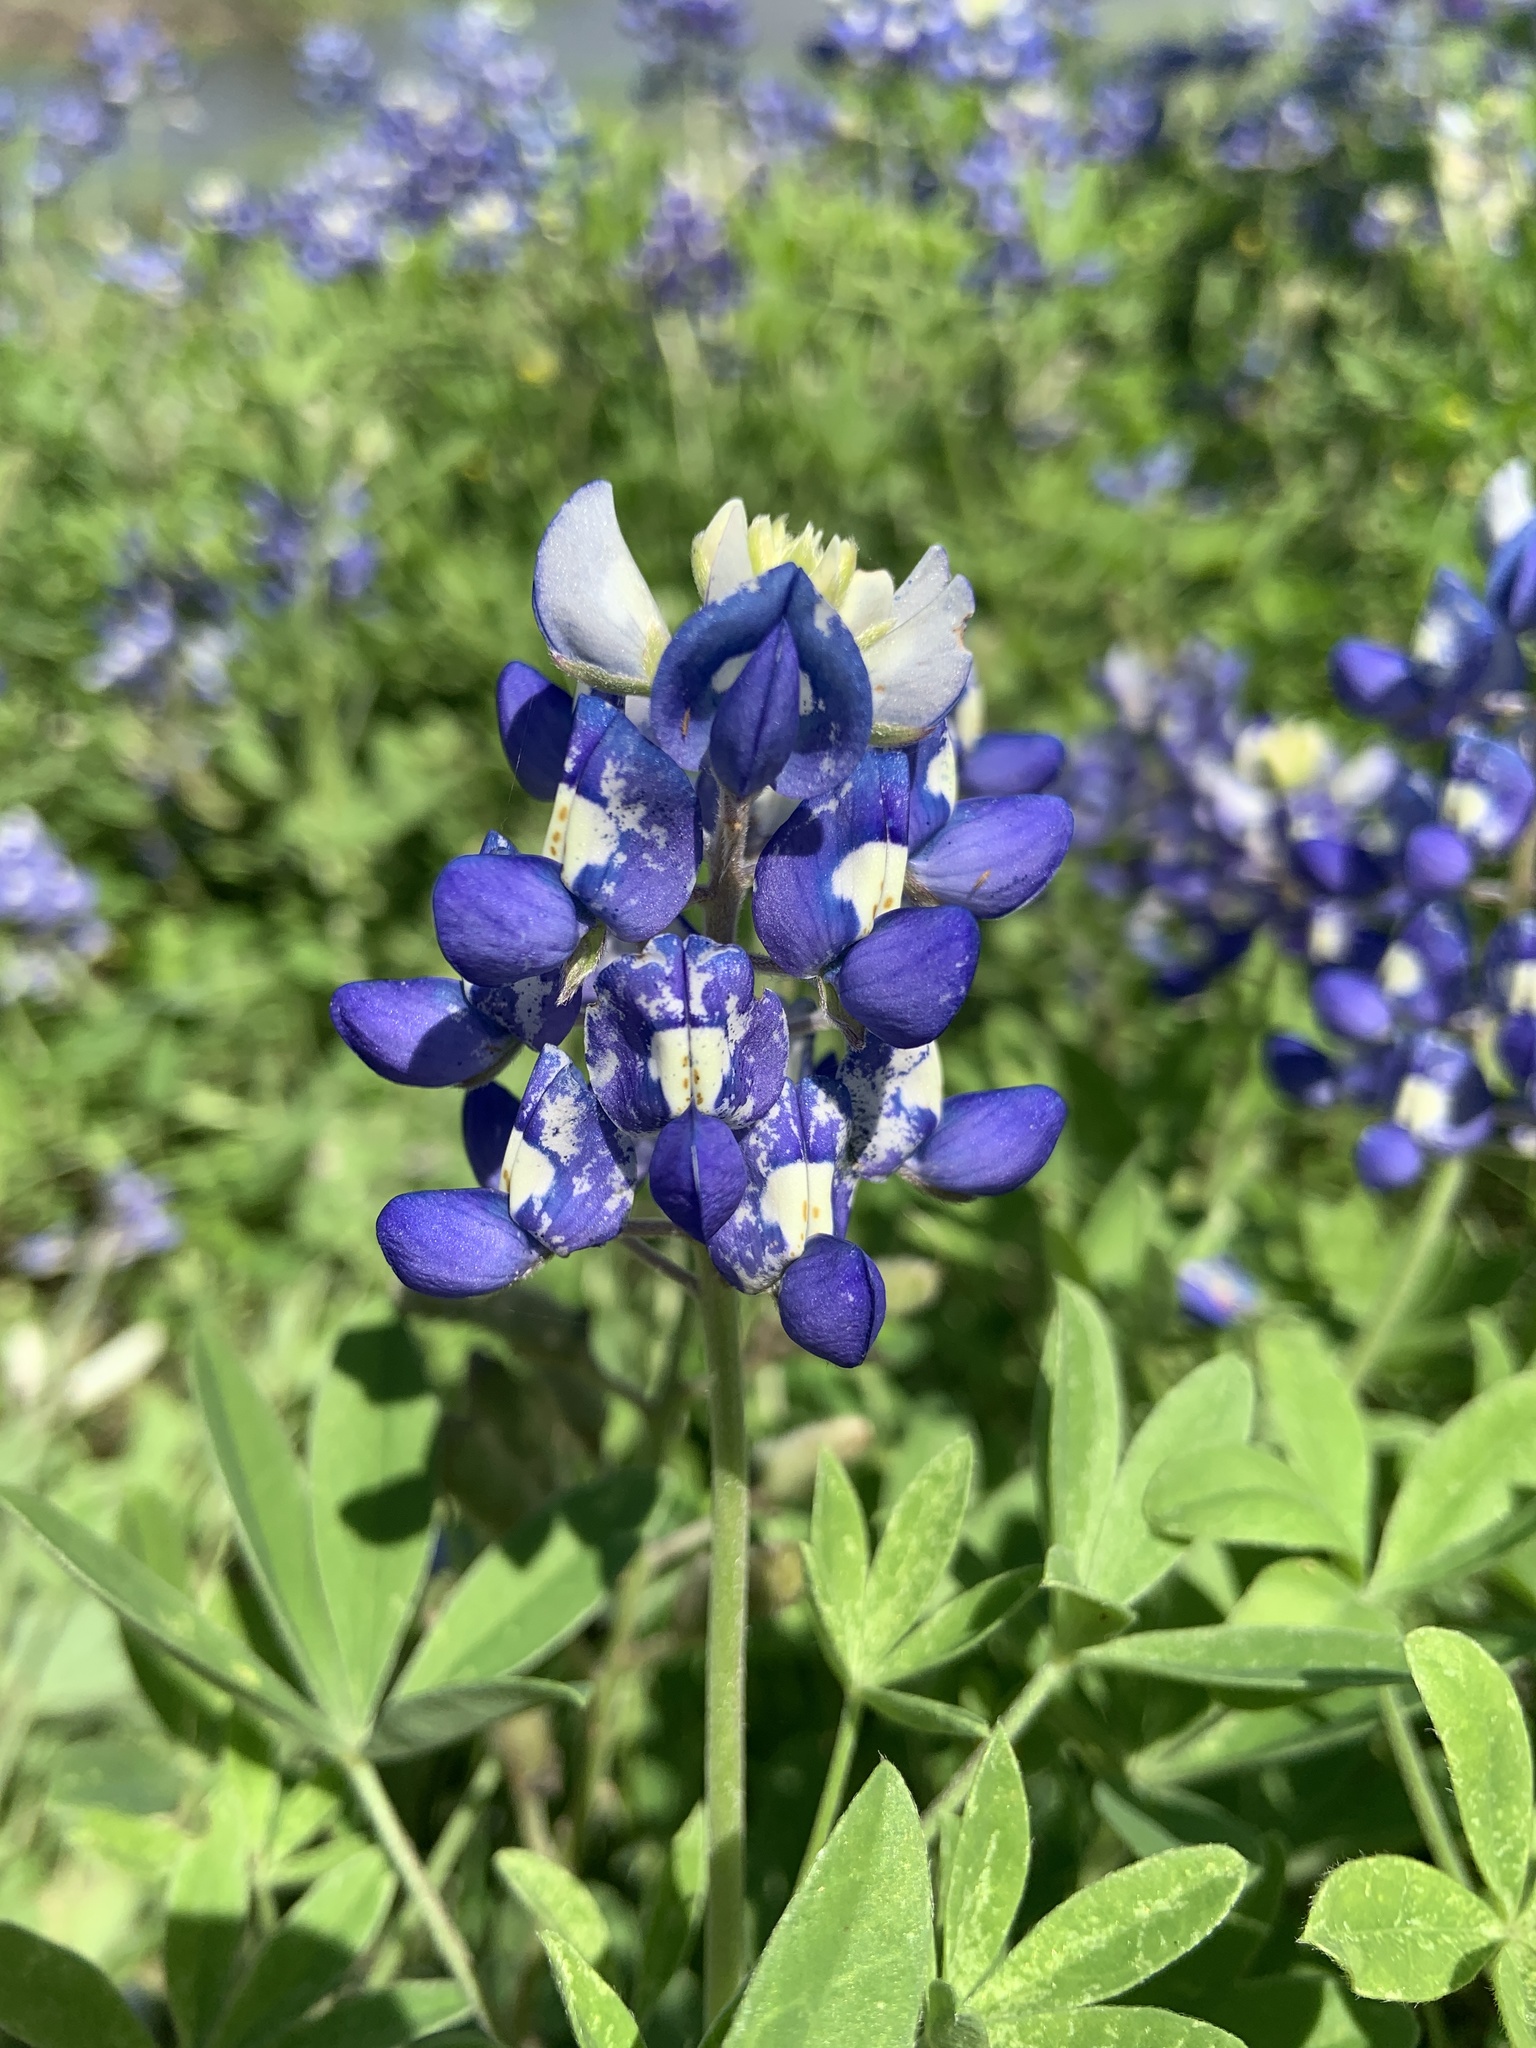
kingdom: Plantae
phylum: Tracheophyta
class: Magnoliopsida
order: Fabales
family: Fabaceae
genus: Lupinus
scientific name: Lupinus texensis
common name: Texas bluebonnet
